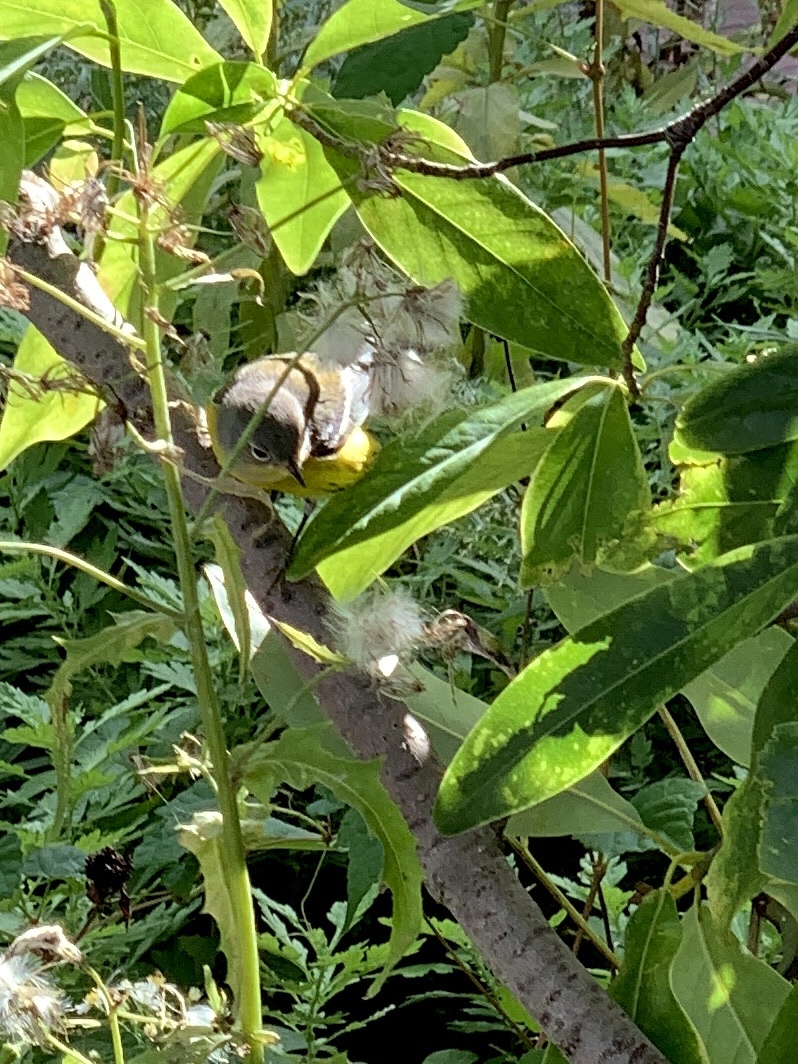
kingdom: Animalia
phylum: Chordata
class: Aves
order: Passeriformes
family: Parulidae
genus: Setophaga
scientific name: Setophaga magnolia
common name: Magnolia warbler
